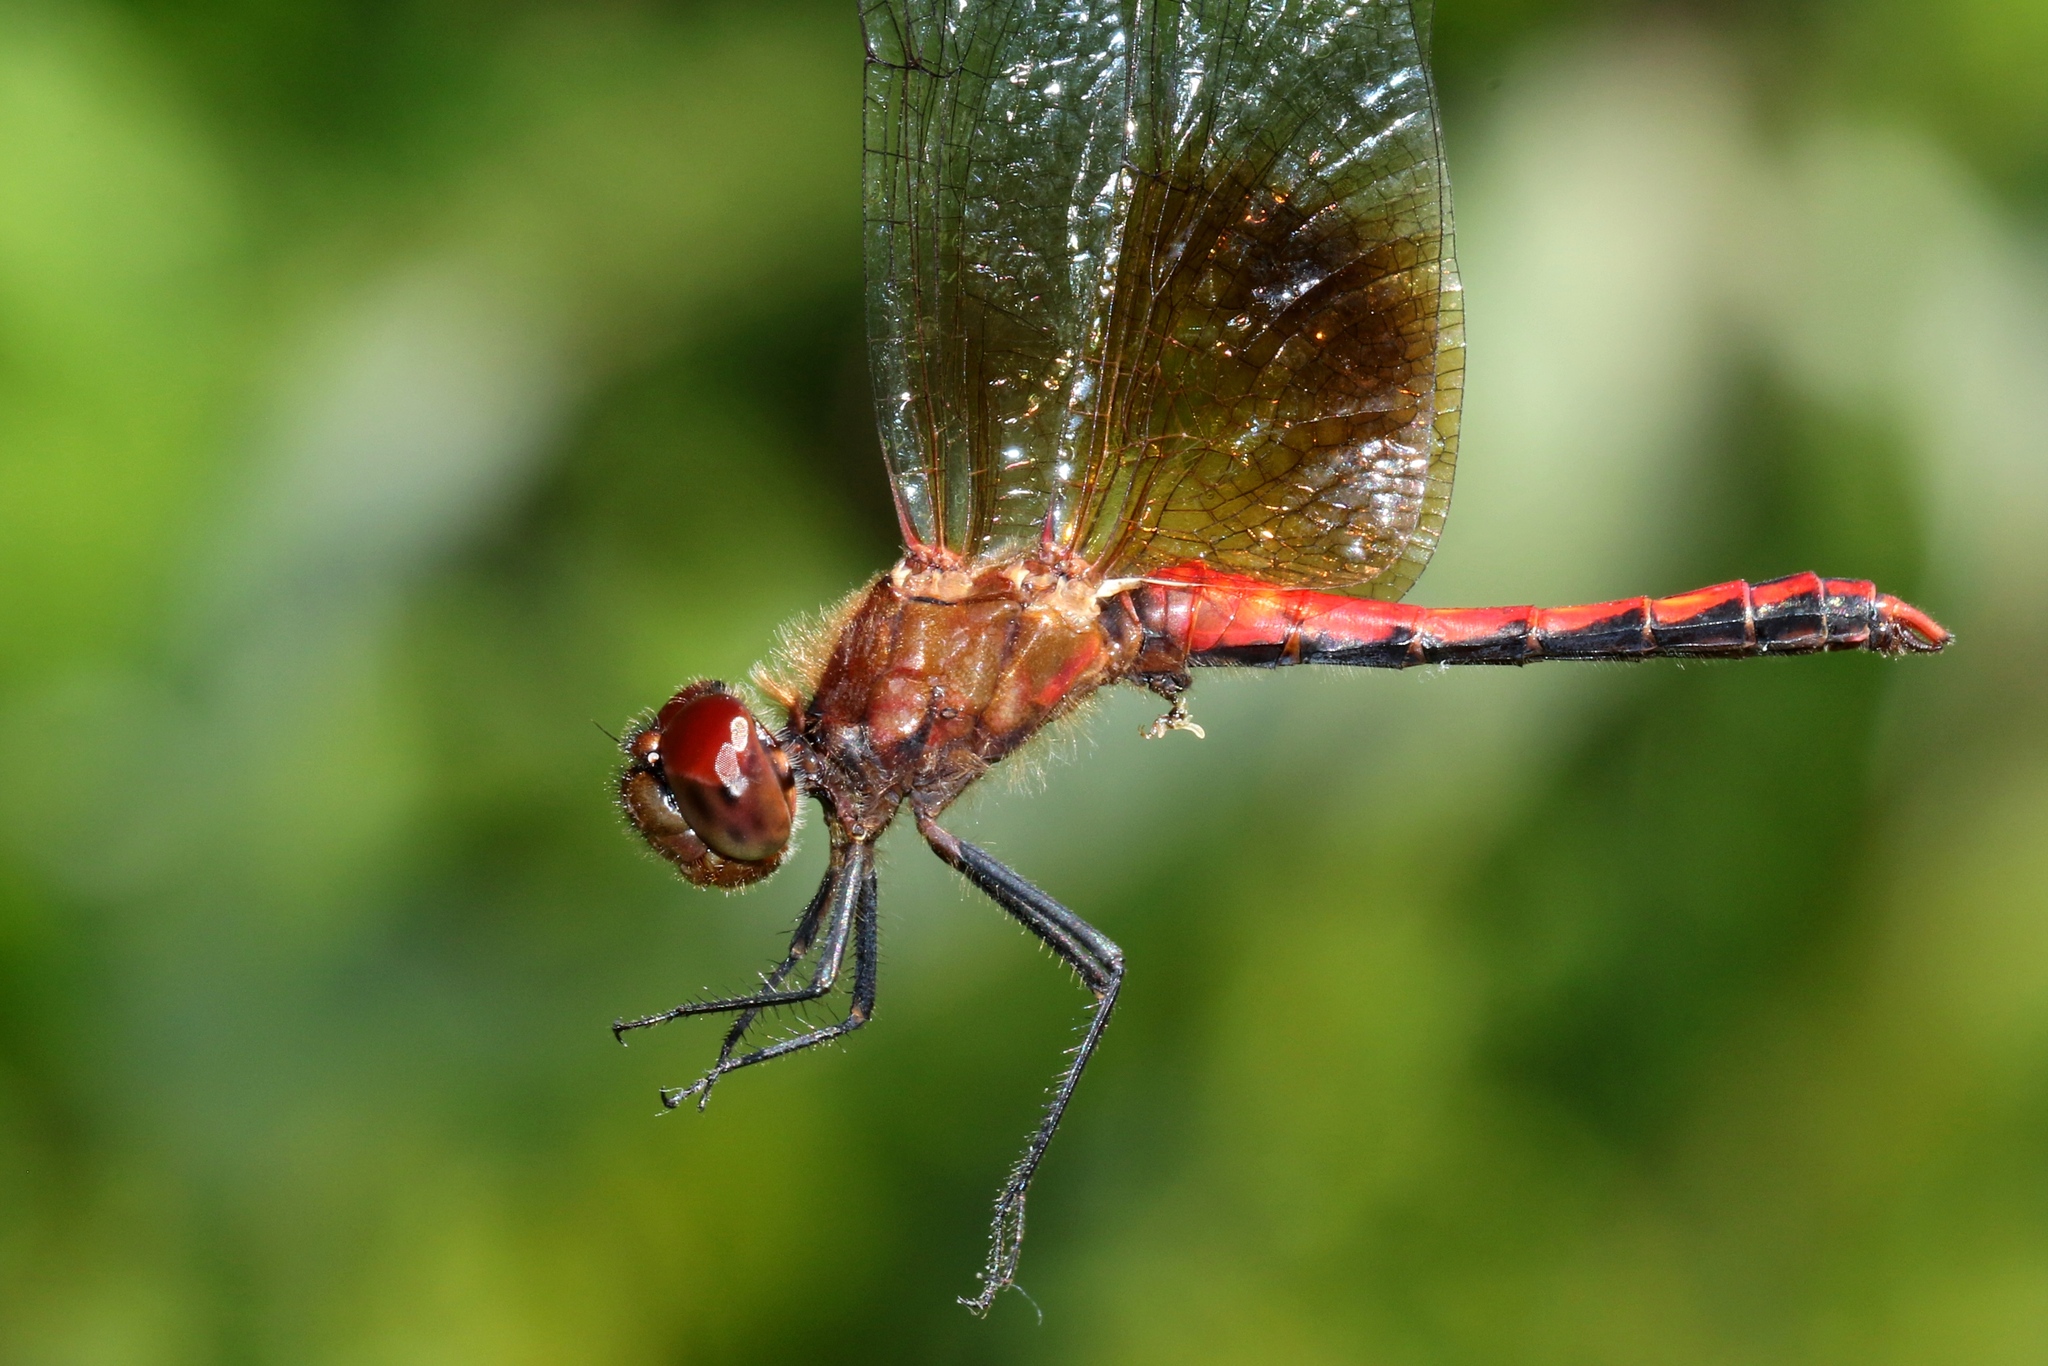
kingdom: Animalia
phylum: Arthropoda
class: Insecta
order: Odonata
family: Libellulidae
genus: Sympetrum
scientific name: Sympetrum semicinctum
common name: Band-winged meadowhawk
